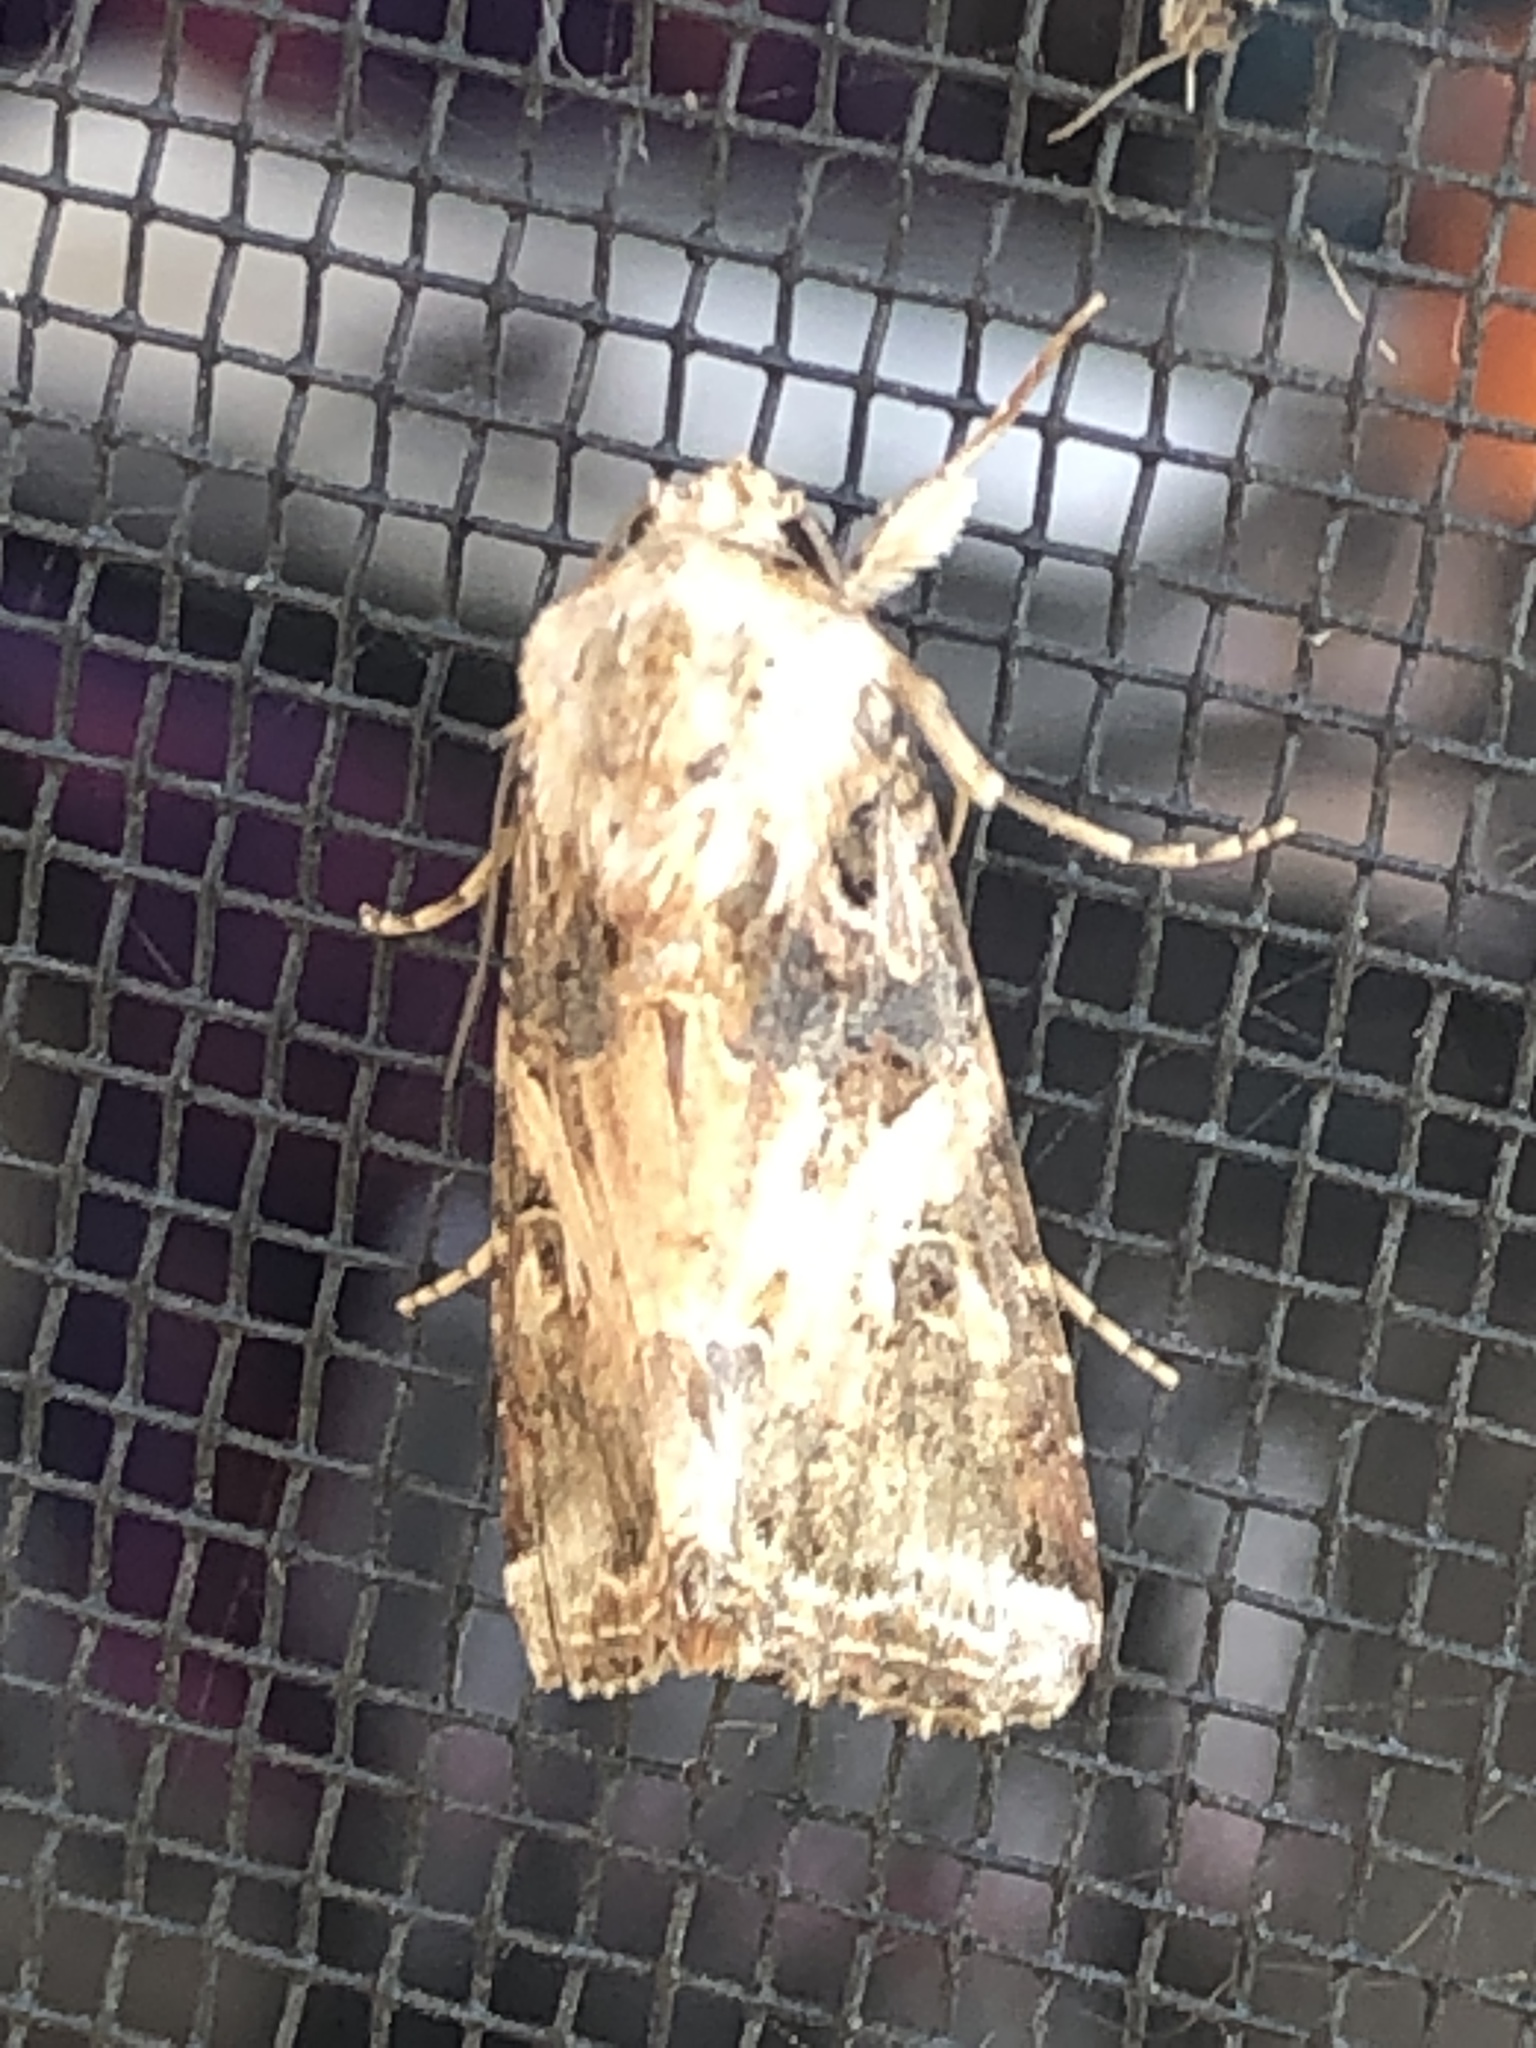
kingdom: Animalia
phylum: Arthropoda
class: Insecta
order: Lepidoptera
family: Noctuidae
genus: Spodoptera
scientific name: Spodoptera ornithogalli
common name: Yellow-striped armyworm
